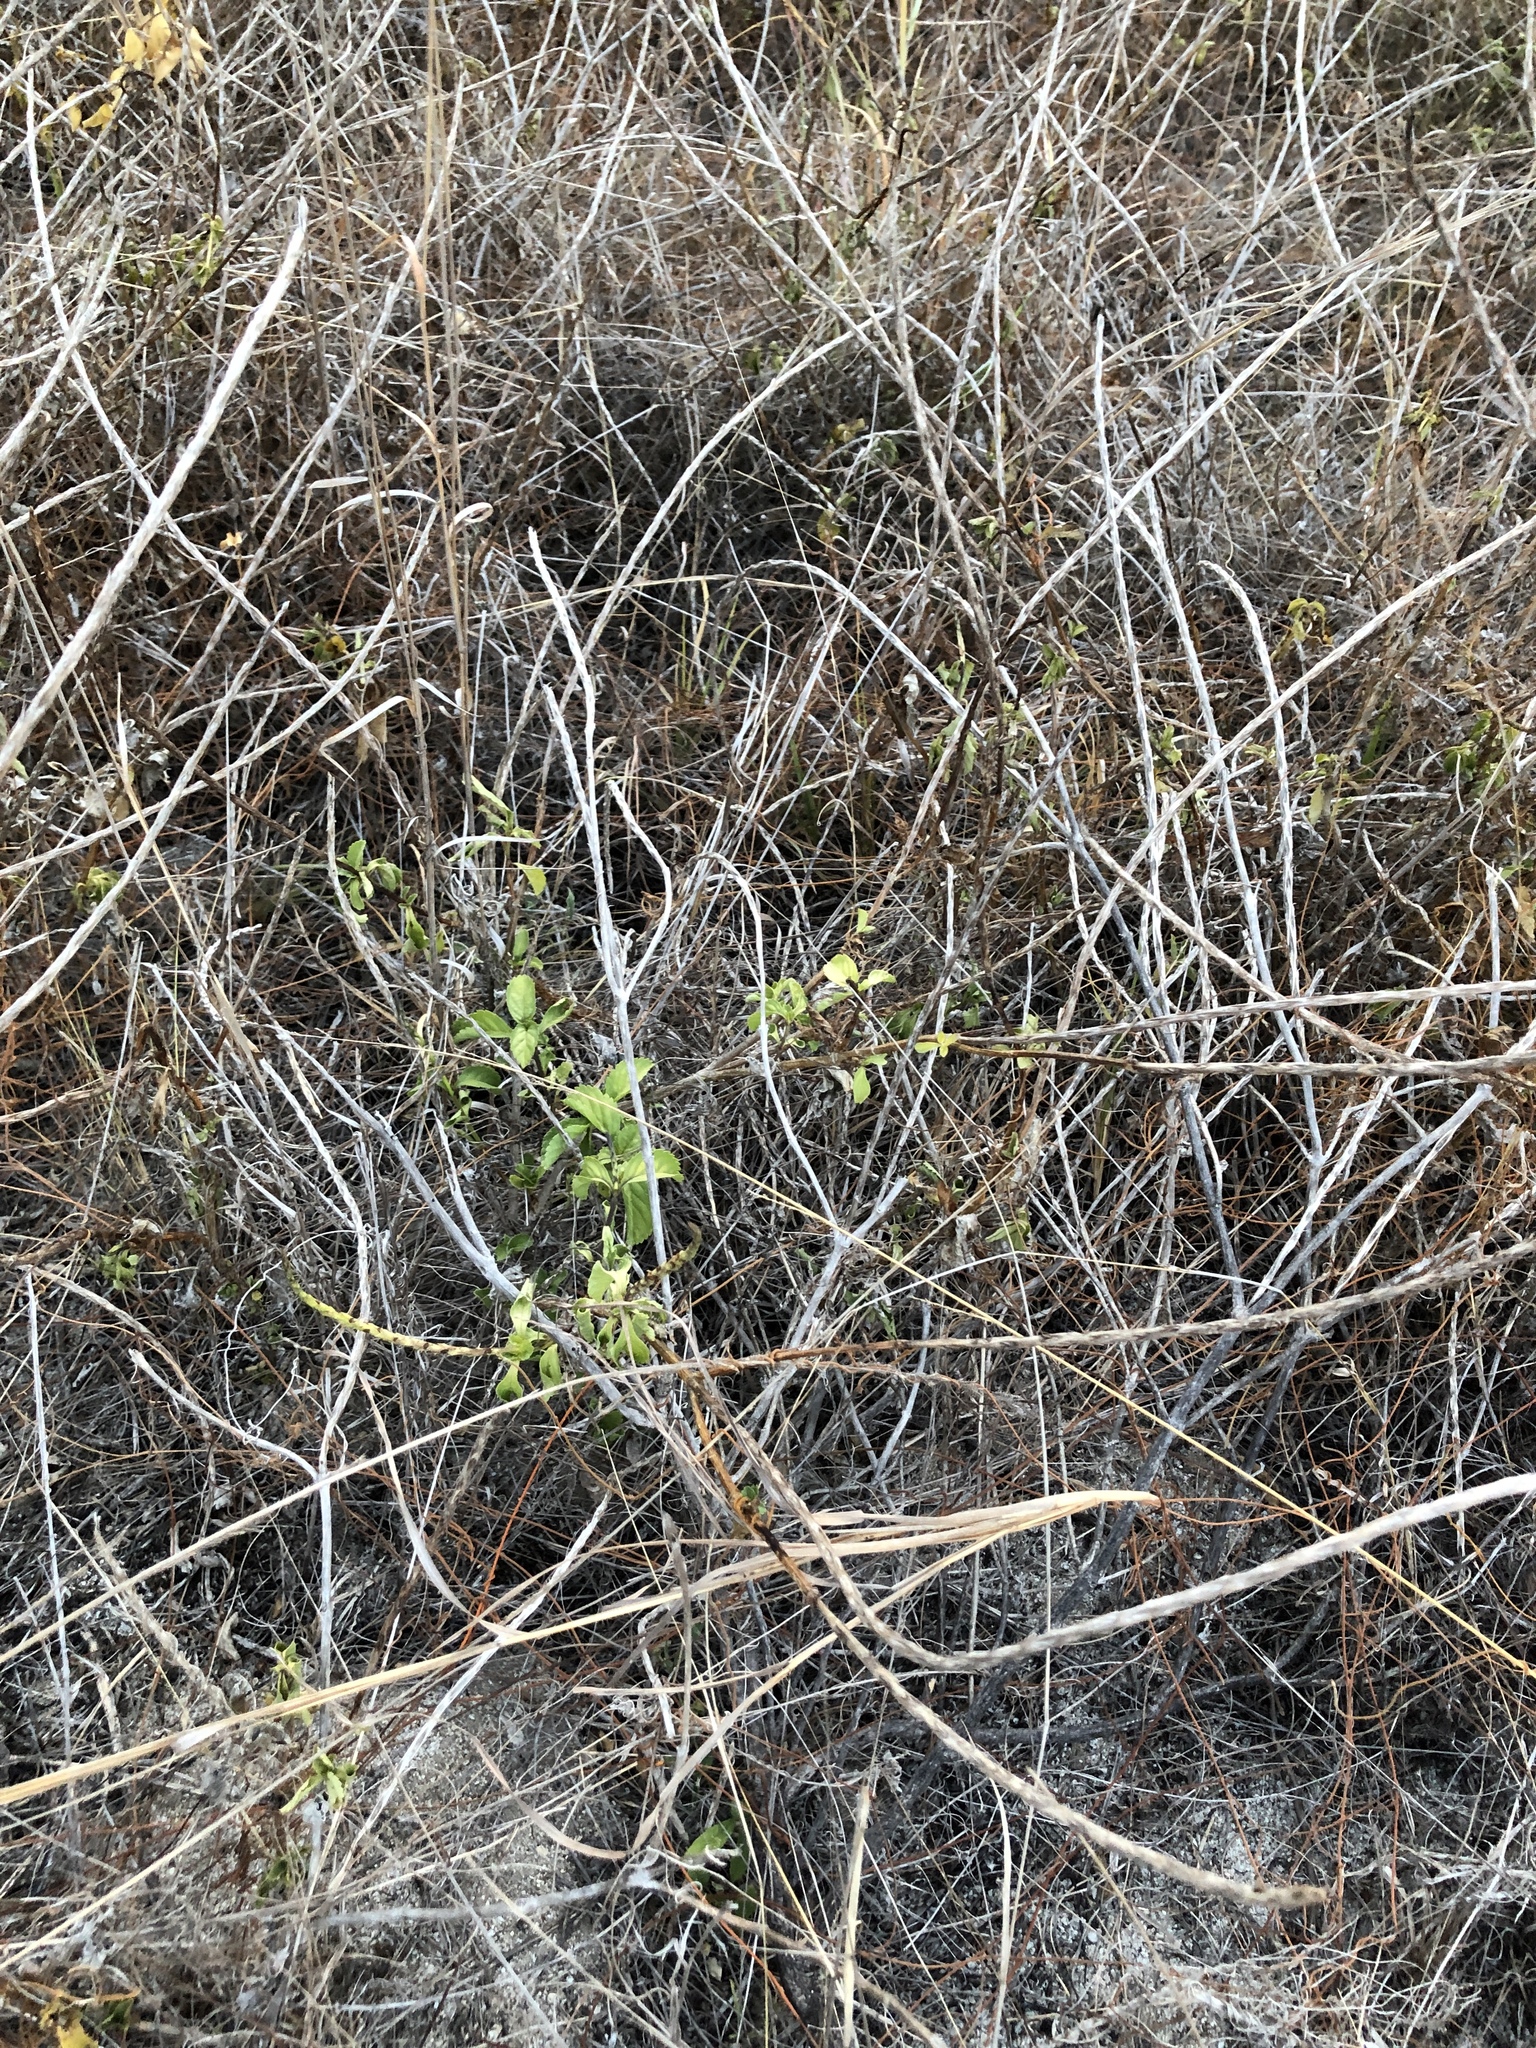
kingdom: Plantae
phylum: Tracheophyta
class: Magnoliopsida
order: Lamiales
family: Verbenaceae
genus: Stachytarpheta
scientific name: Stachytarpheta jamaicensis
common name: Light-blue snakeweed
